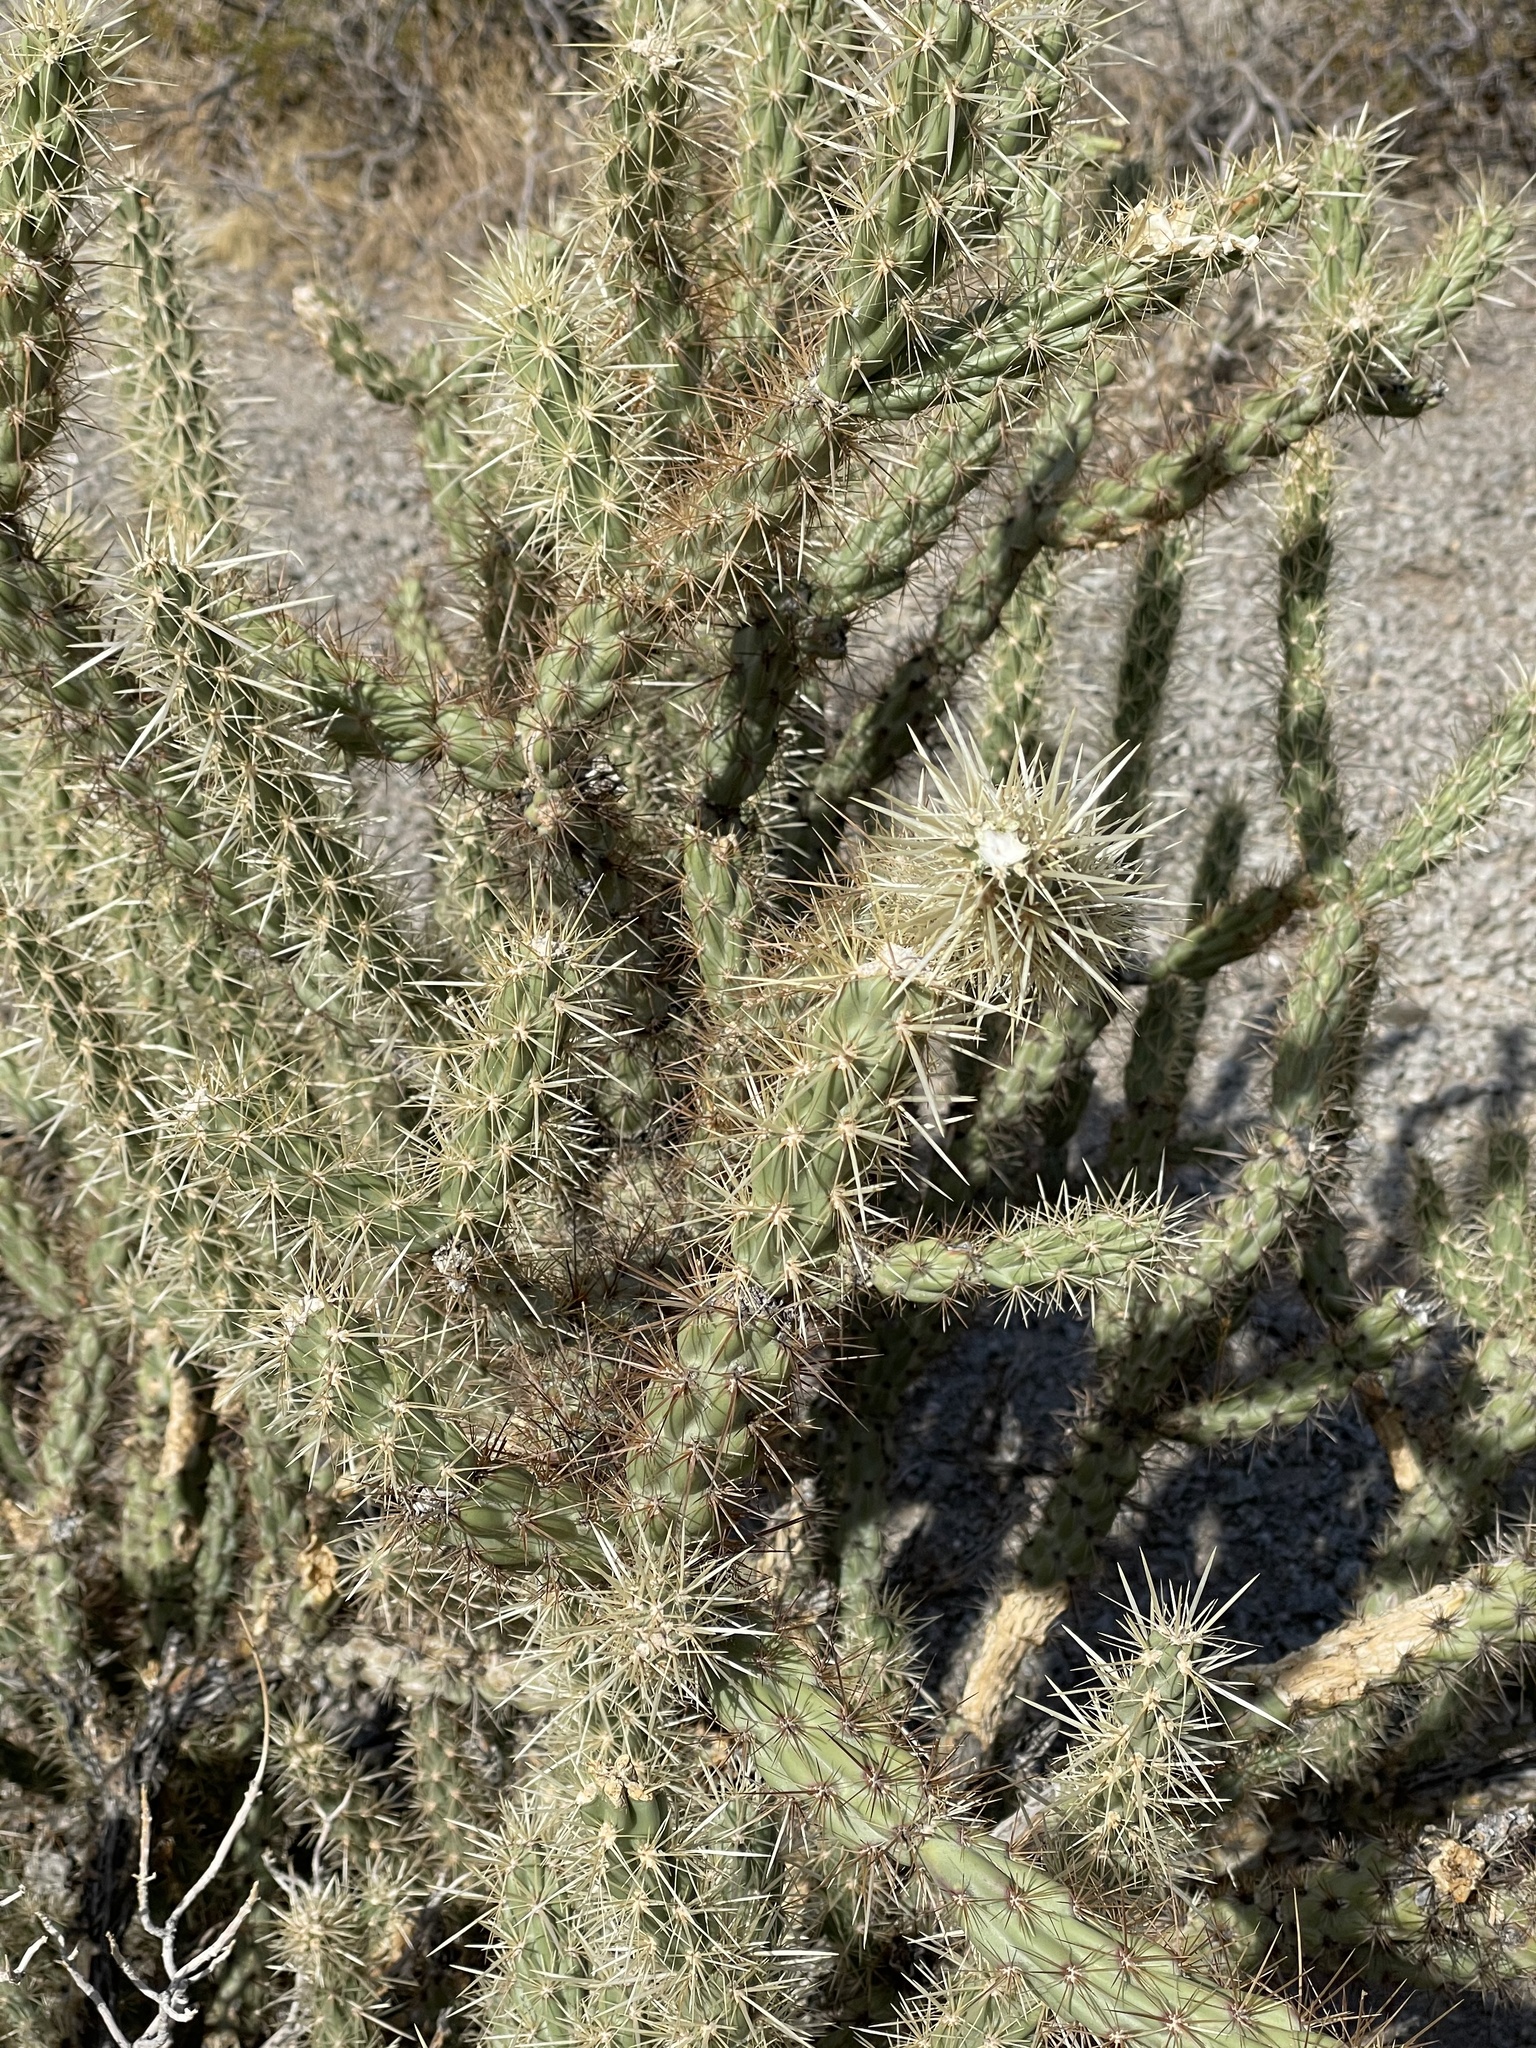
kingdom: Plantae
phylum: Tracheophyta
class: Magnoliopsida
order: Caryophyllales
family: Cactaceae
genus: Cylindropuntia
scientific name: Cylindropuntia acanthocarpa
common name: Buckhorn cholla
